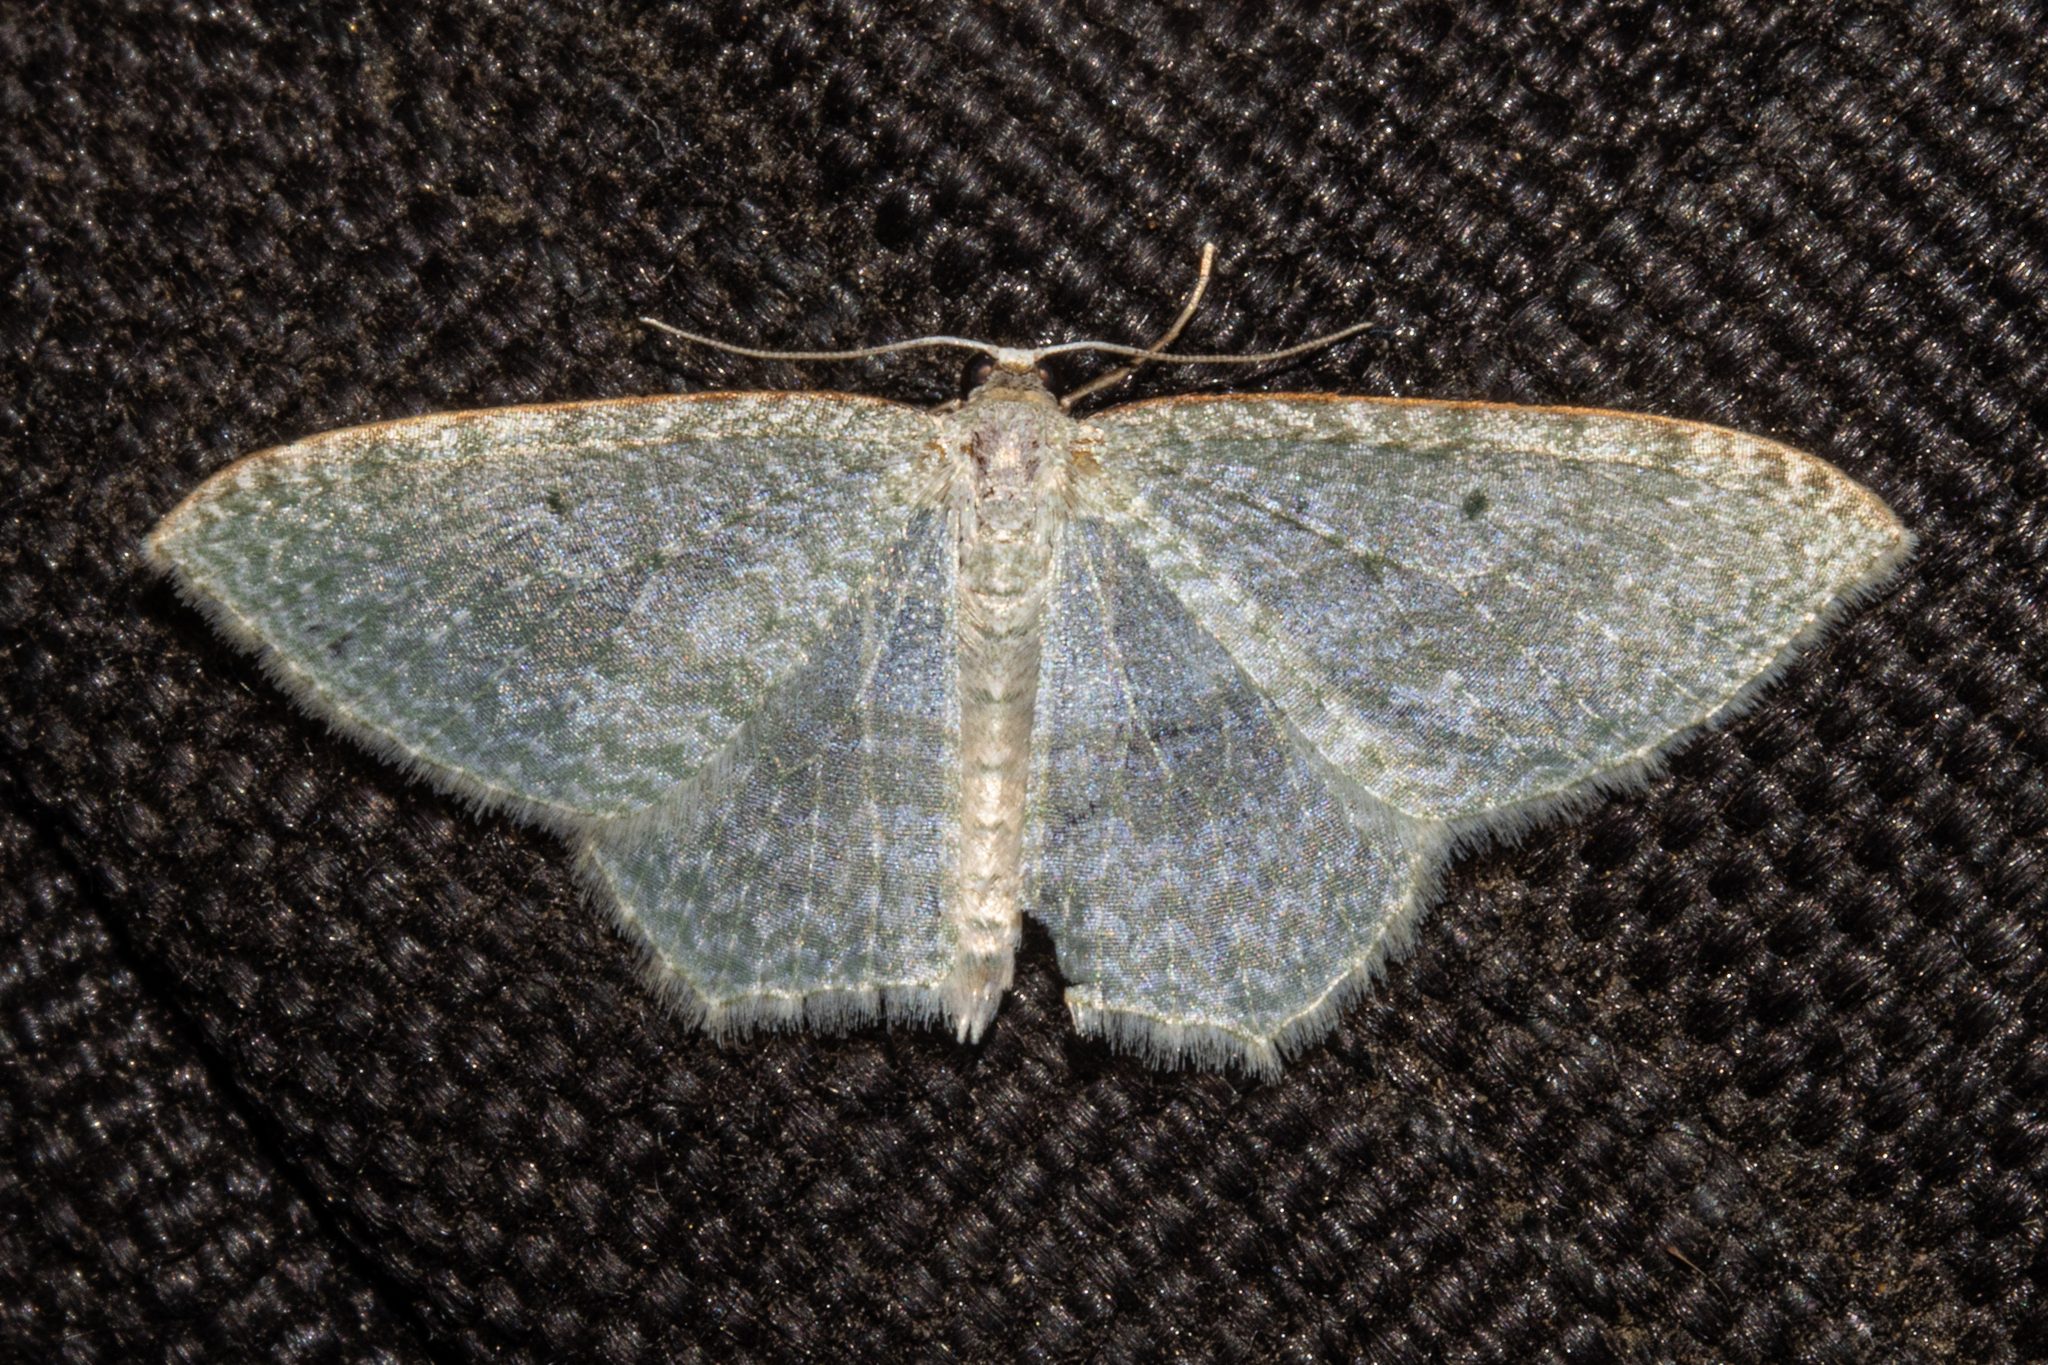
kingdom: Animalia
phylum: Arthropoda
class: Insecta
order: Lepidoptera
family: Geometridae
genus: Poecilasthena
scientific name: Poecilasthena pulchraria
